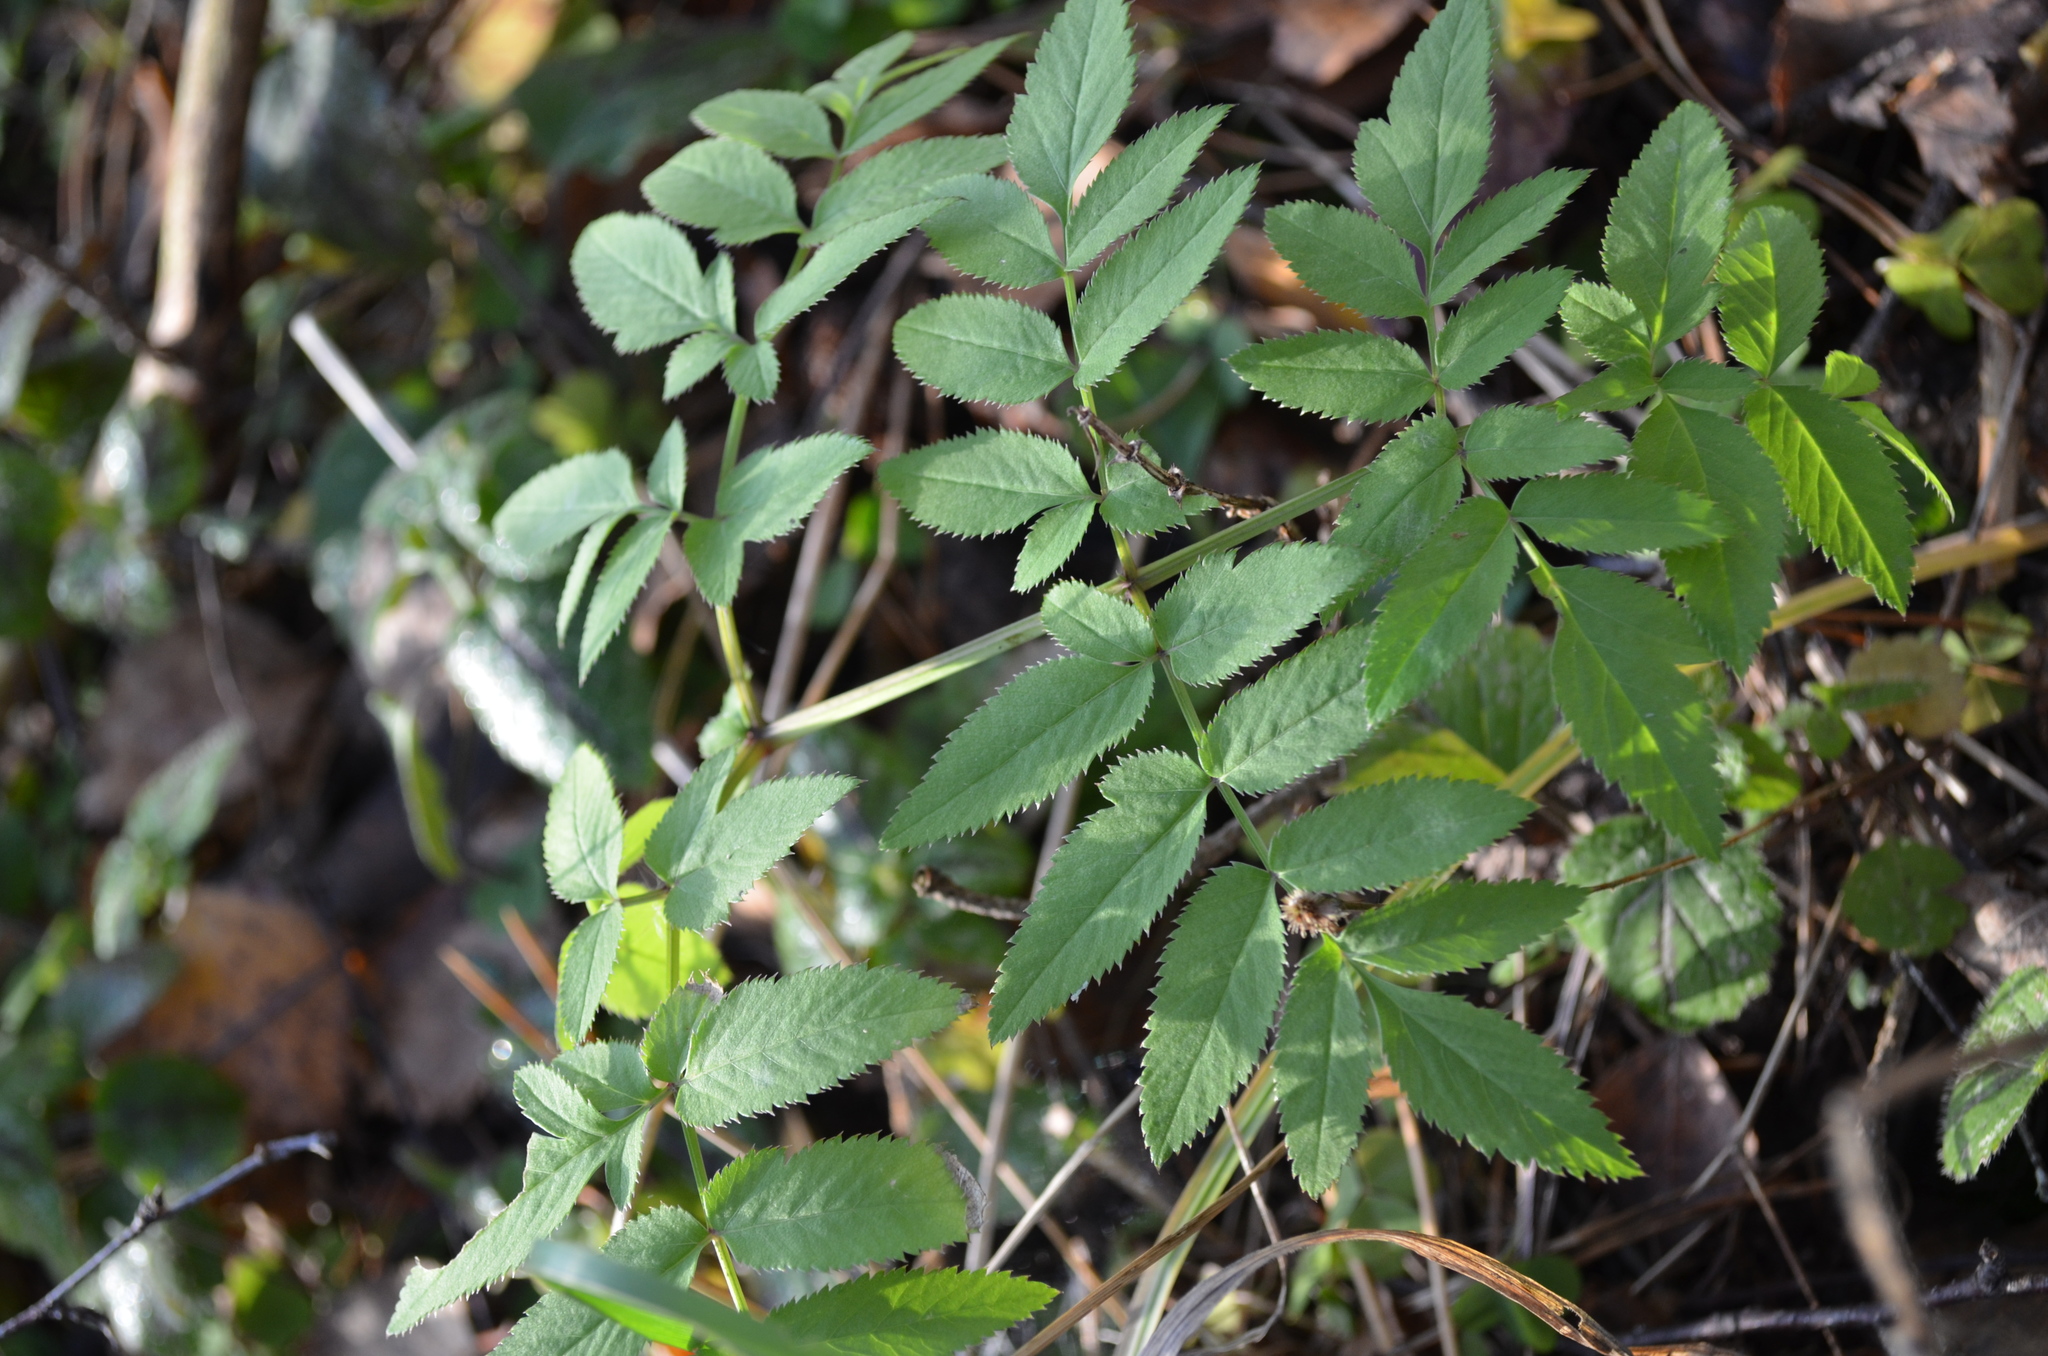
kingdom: Plantae
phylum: Tracheophyta
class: Magnoliopsida
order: Apiales
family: Apiaceae
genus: Angelica
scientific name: Angelica sylvestris
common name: Wild angelica
